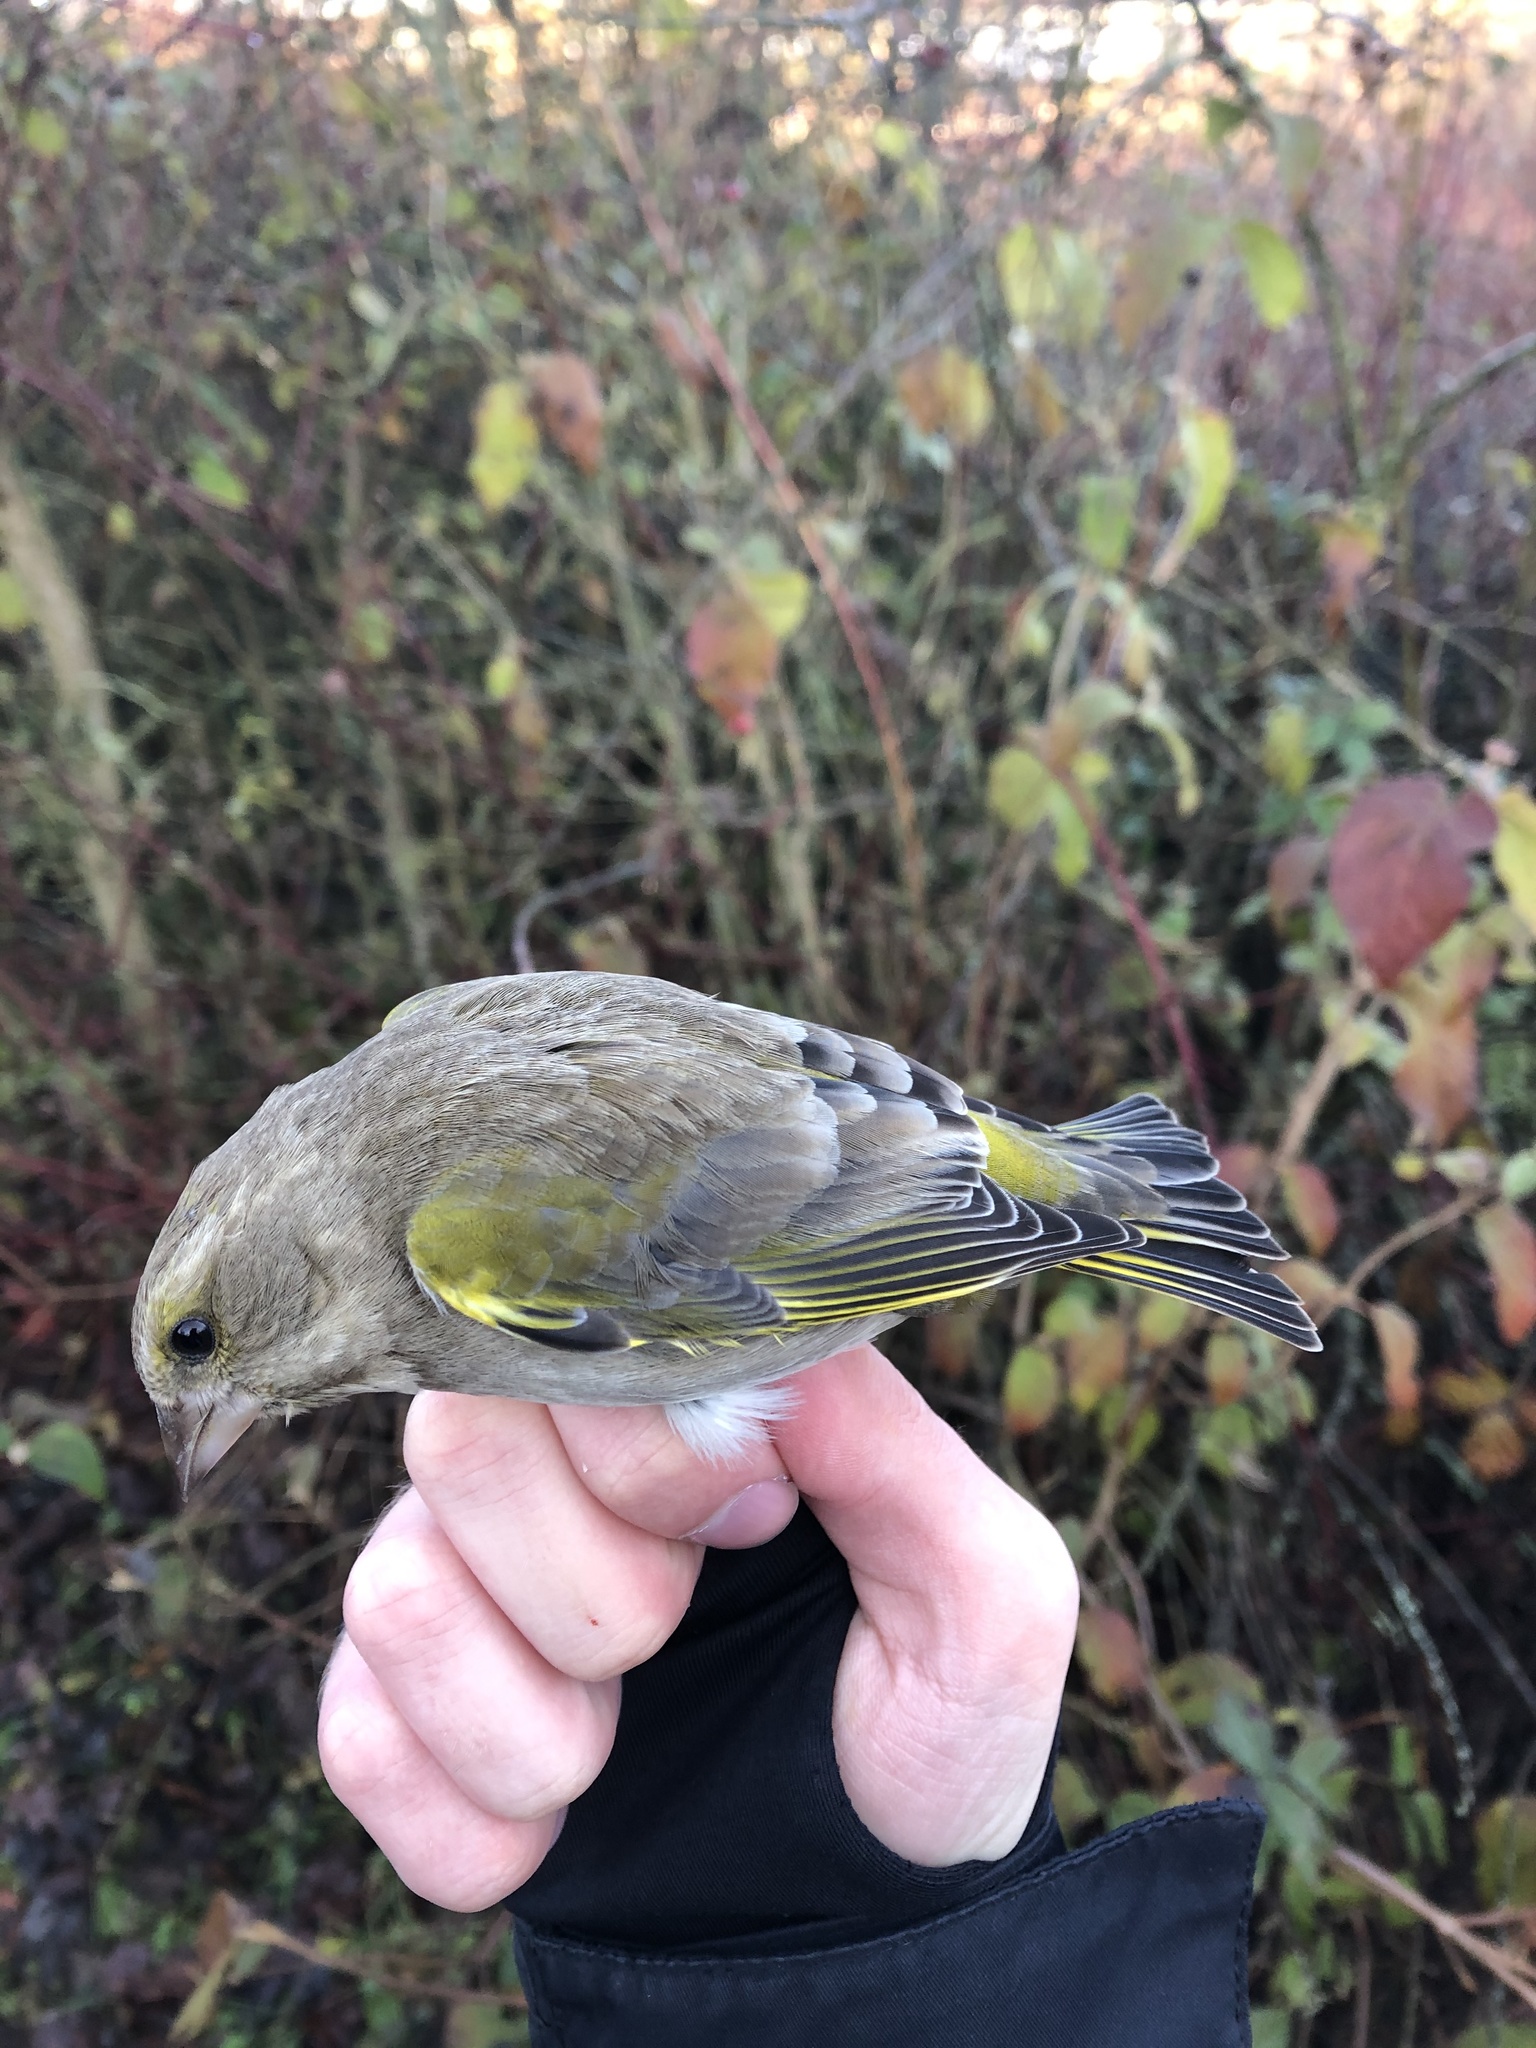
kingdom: Plantae
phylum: Tracheophyta
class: Liliopsida
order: Poales
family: Poaceae
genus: Chloris
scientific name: Chloris chloris
